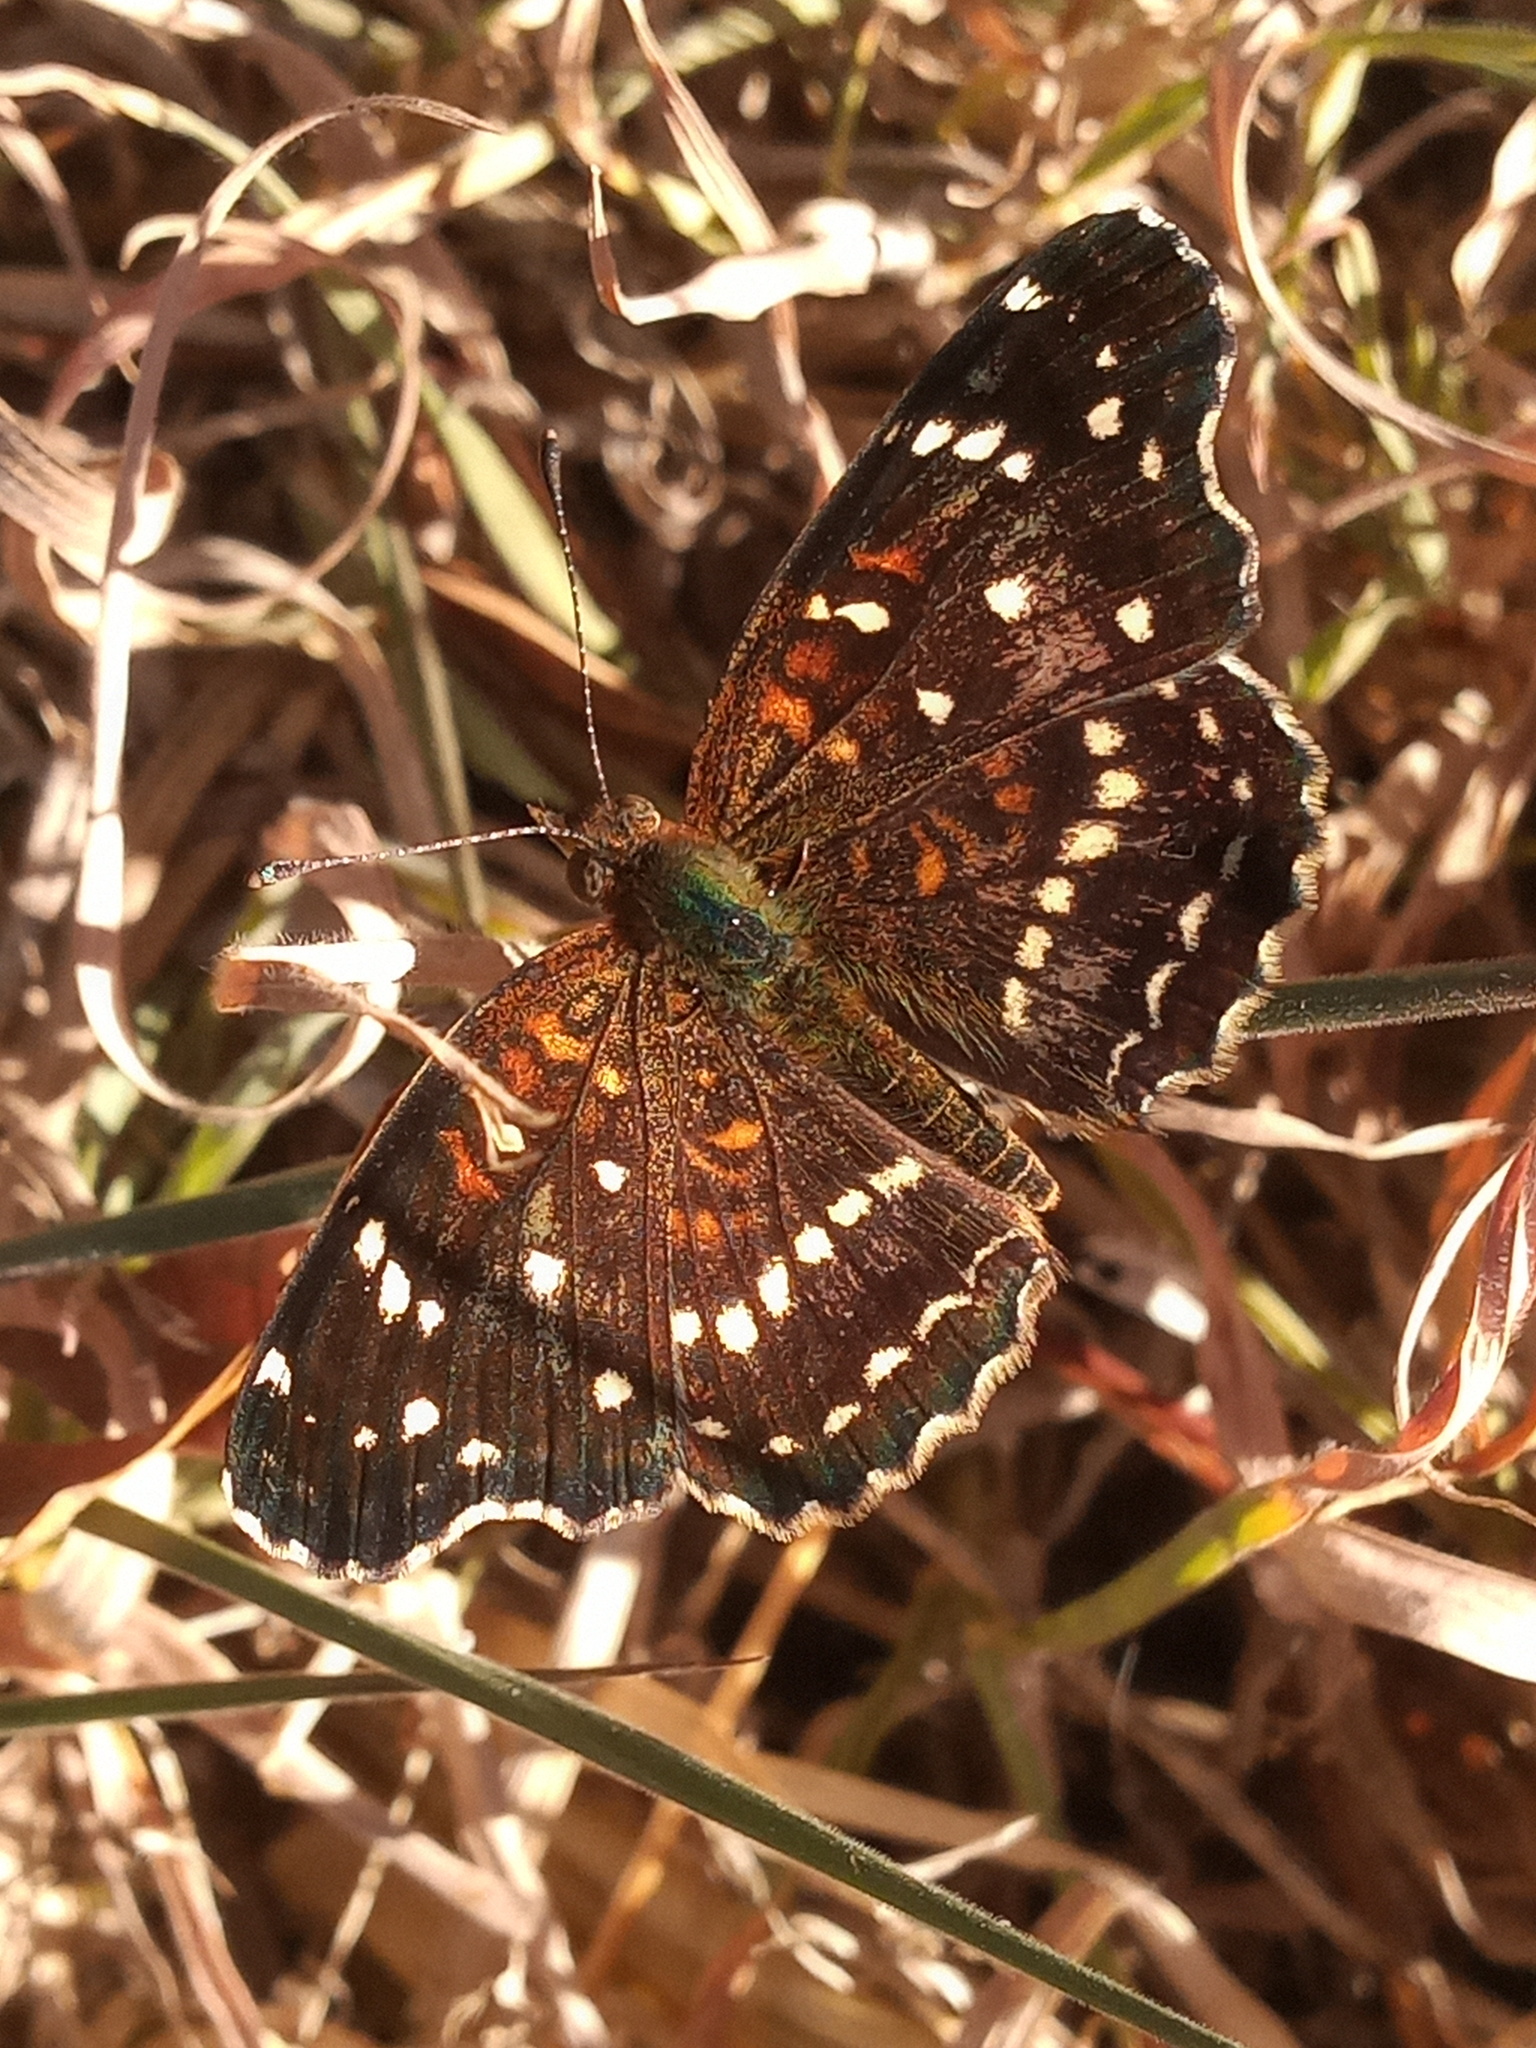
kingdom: Animalia
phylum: Arthropoda
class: Insecta
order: Lepidoptera
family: Nymphalidae
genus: Anthanassa
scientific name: Anthanassa texana
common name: Texan crescent
